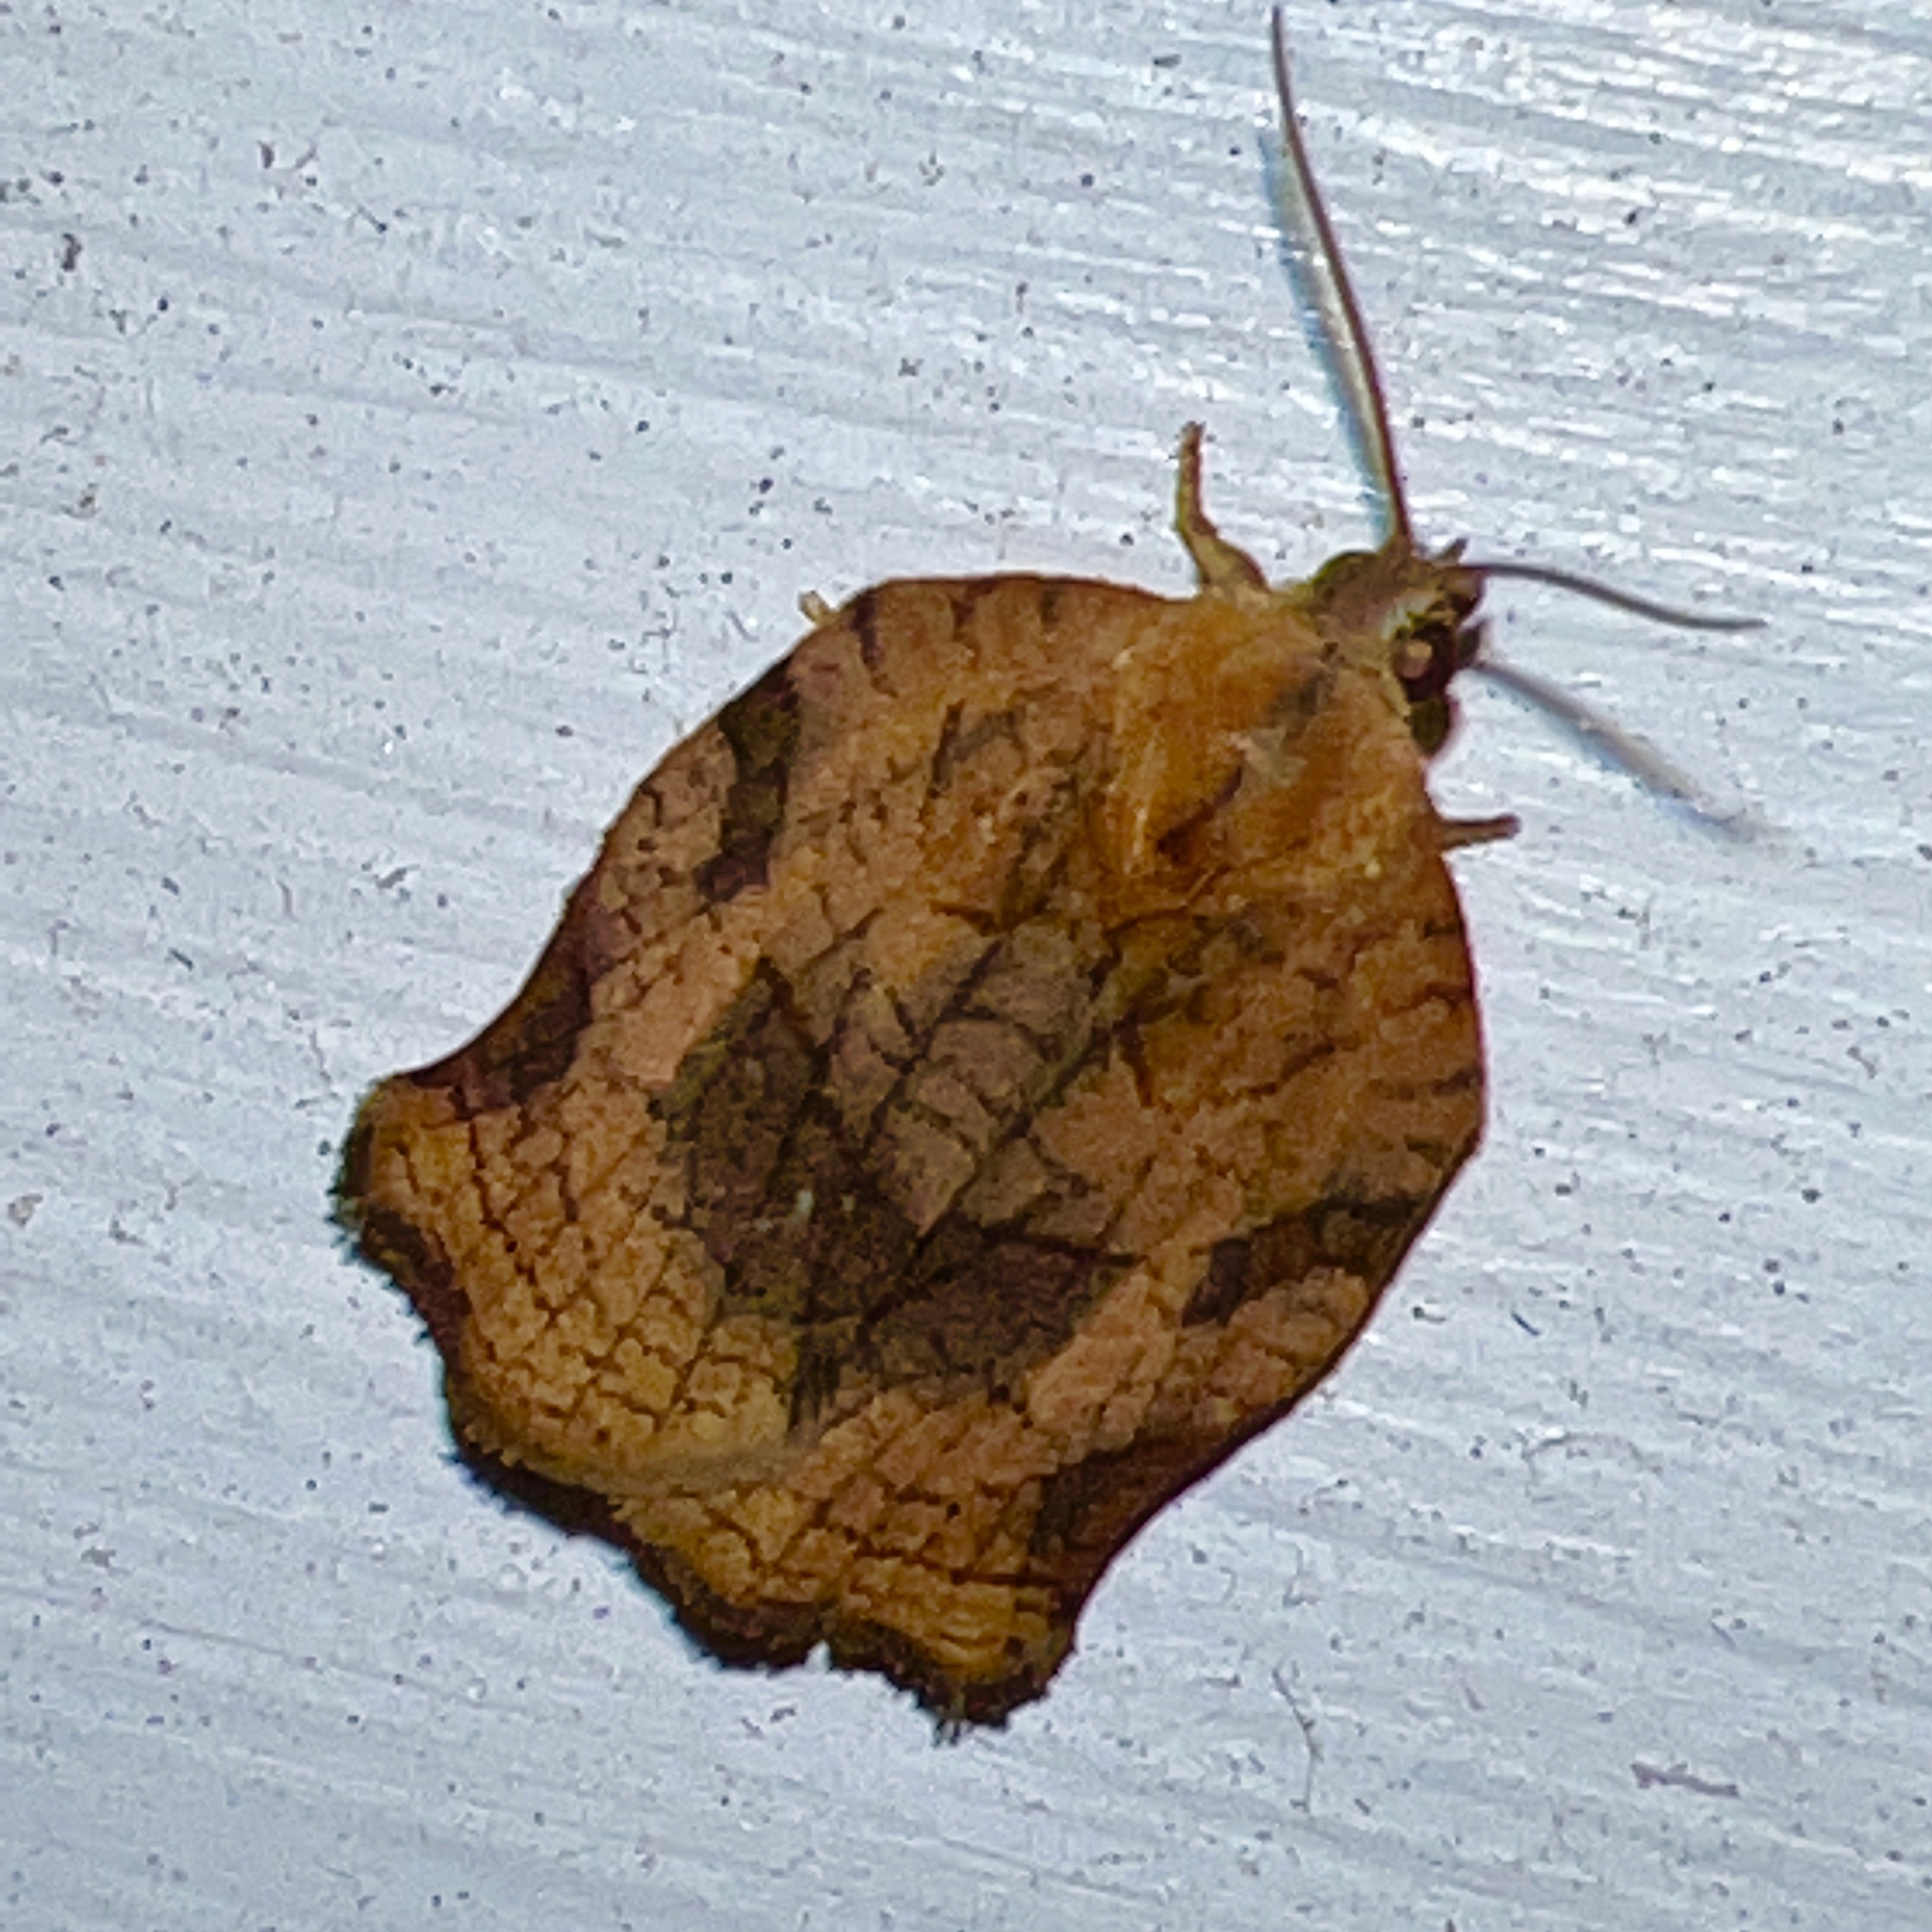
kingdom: Animalia
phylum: Arthropoda
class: Insecta
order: Lepidoptera
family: Tortricidae
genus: Archips
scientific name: Archips purpurana
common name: Omnivorous leafroller
